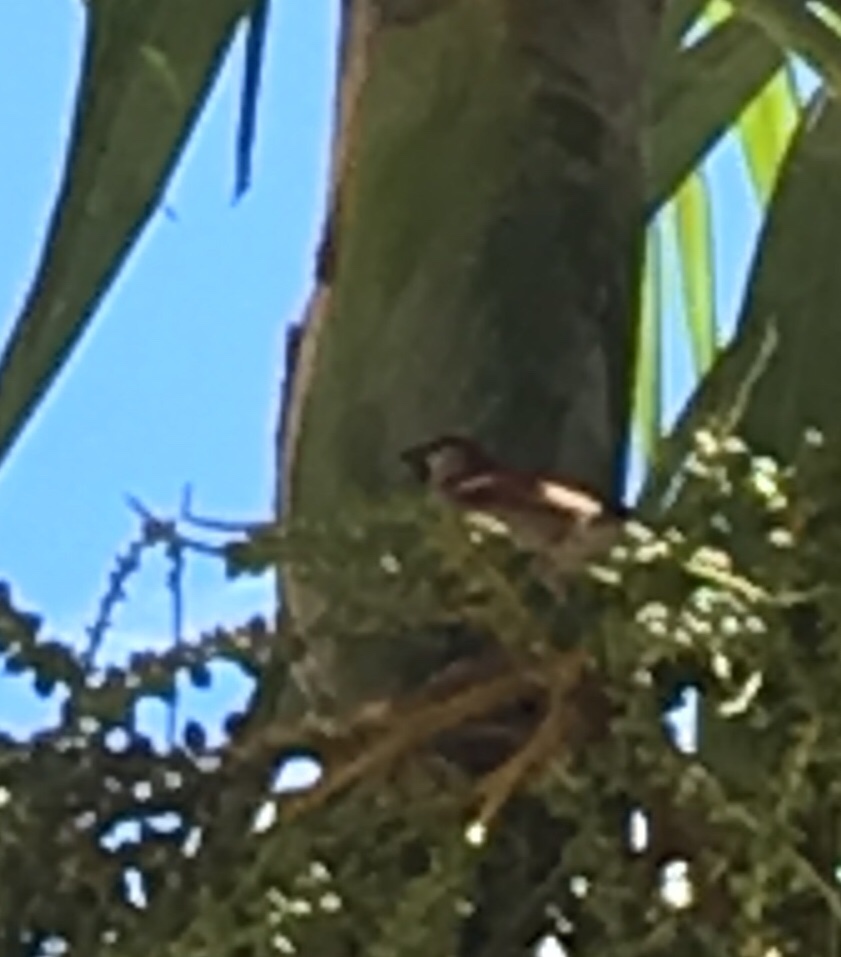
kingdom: Animalia
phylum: Chordata
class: Aves
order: Passeriformes
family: Passeridae
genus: Passer
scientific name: Passer domesticus
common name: House sparrow
